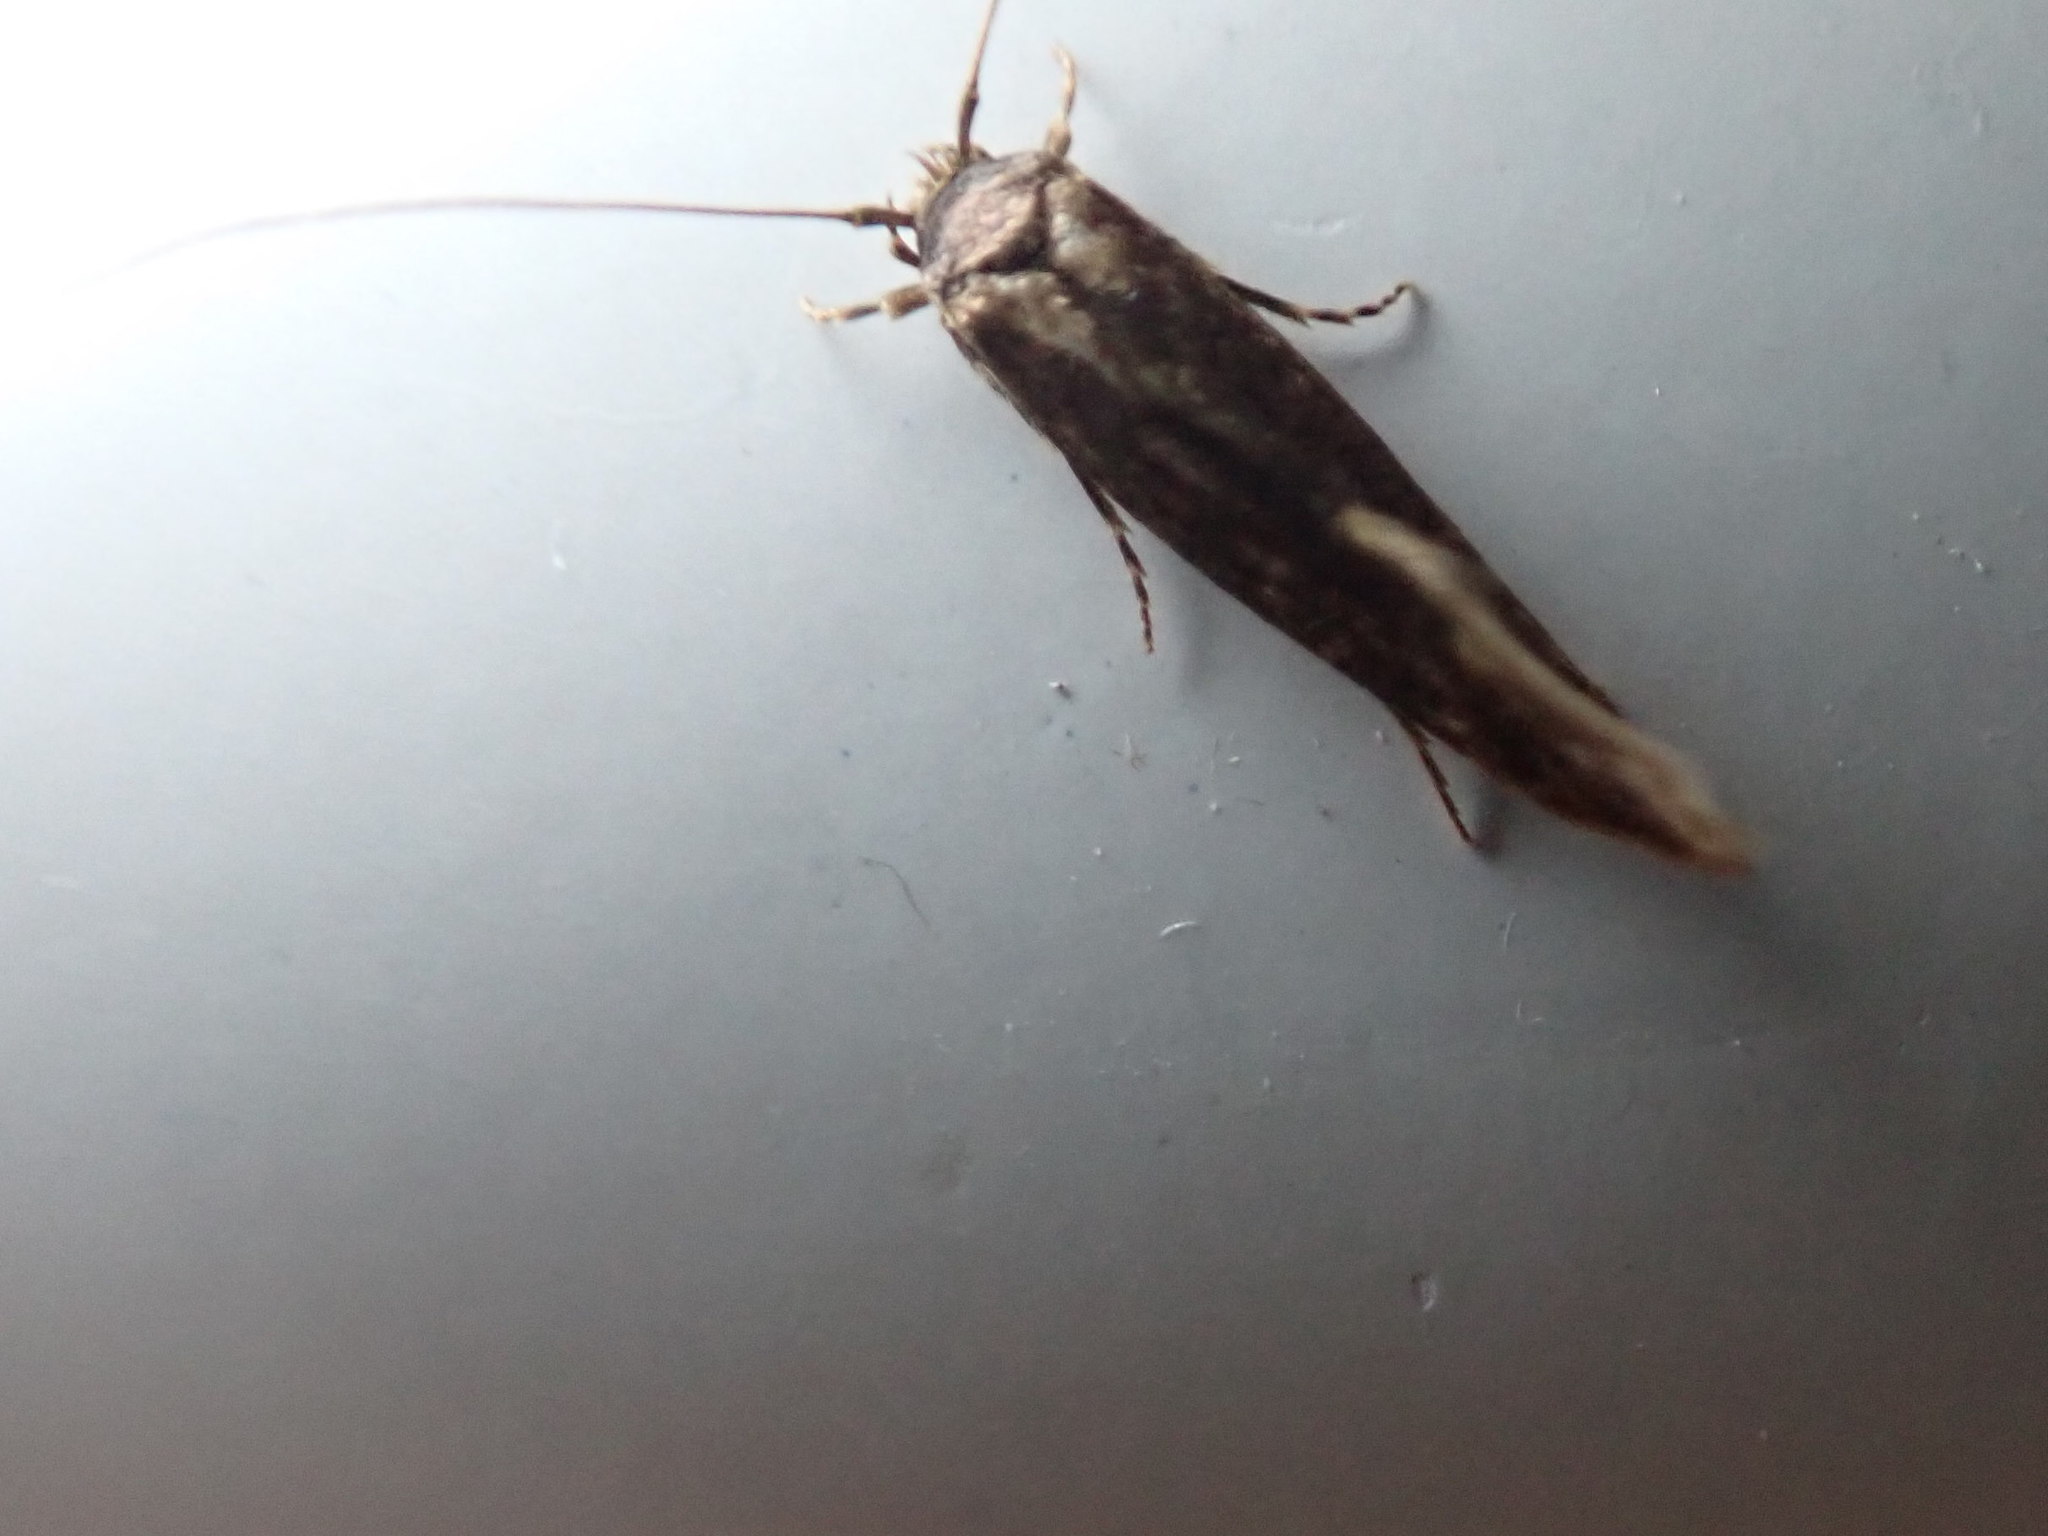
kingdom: Animalia
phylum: Arthropoda
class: Insecta
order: Lepidoptera
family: Tineidae
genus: Opogona
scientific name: Opogona omoscopa
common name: Moth
